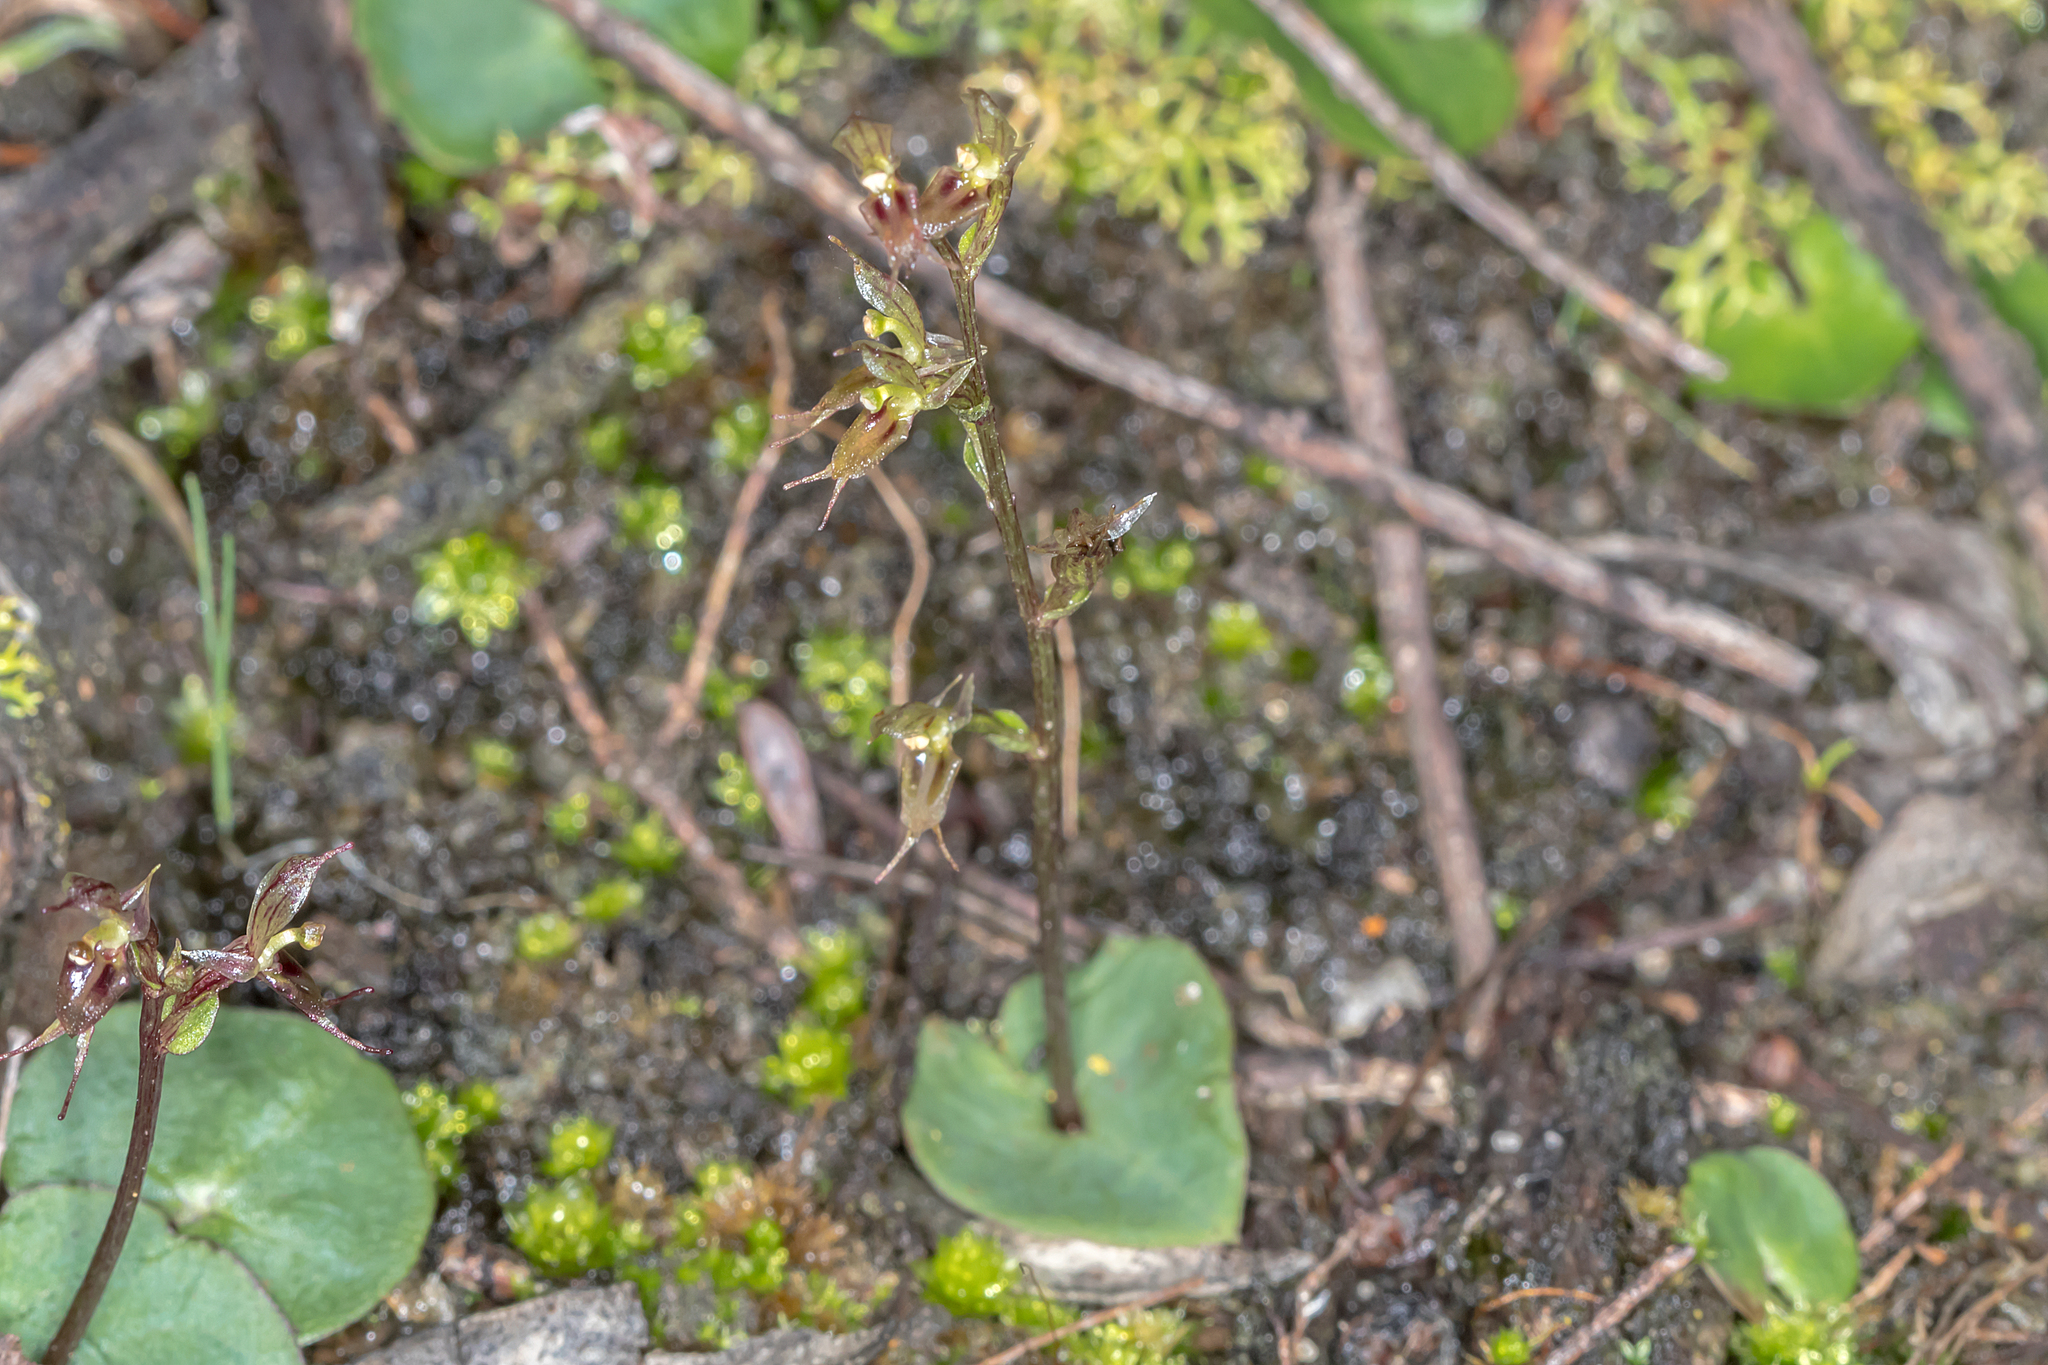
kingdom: Plantae
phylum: Tracheophyta
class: Liliopsida
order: Asparagales
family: Orchidaceae
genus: Acianthus
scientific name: Acianthus pusillus
